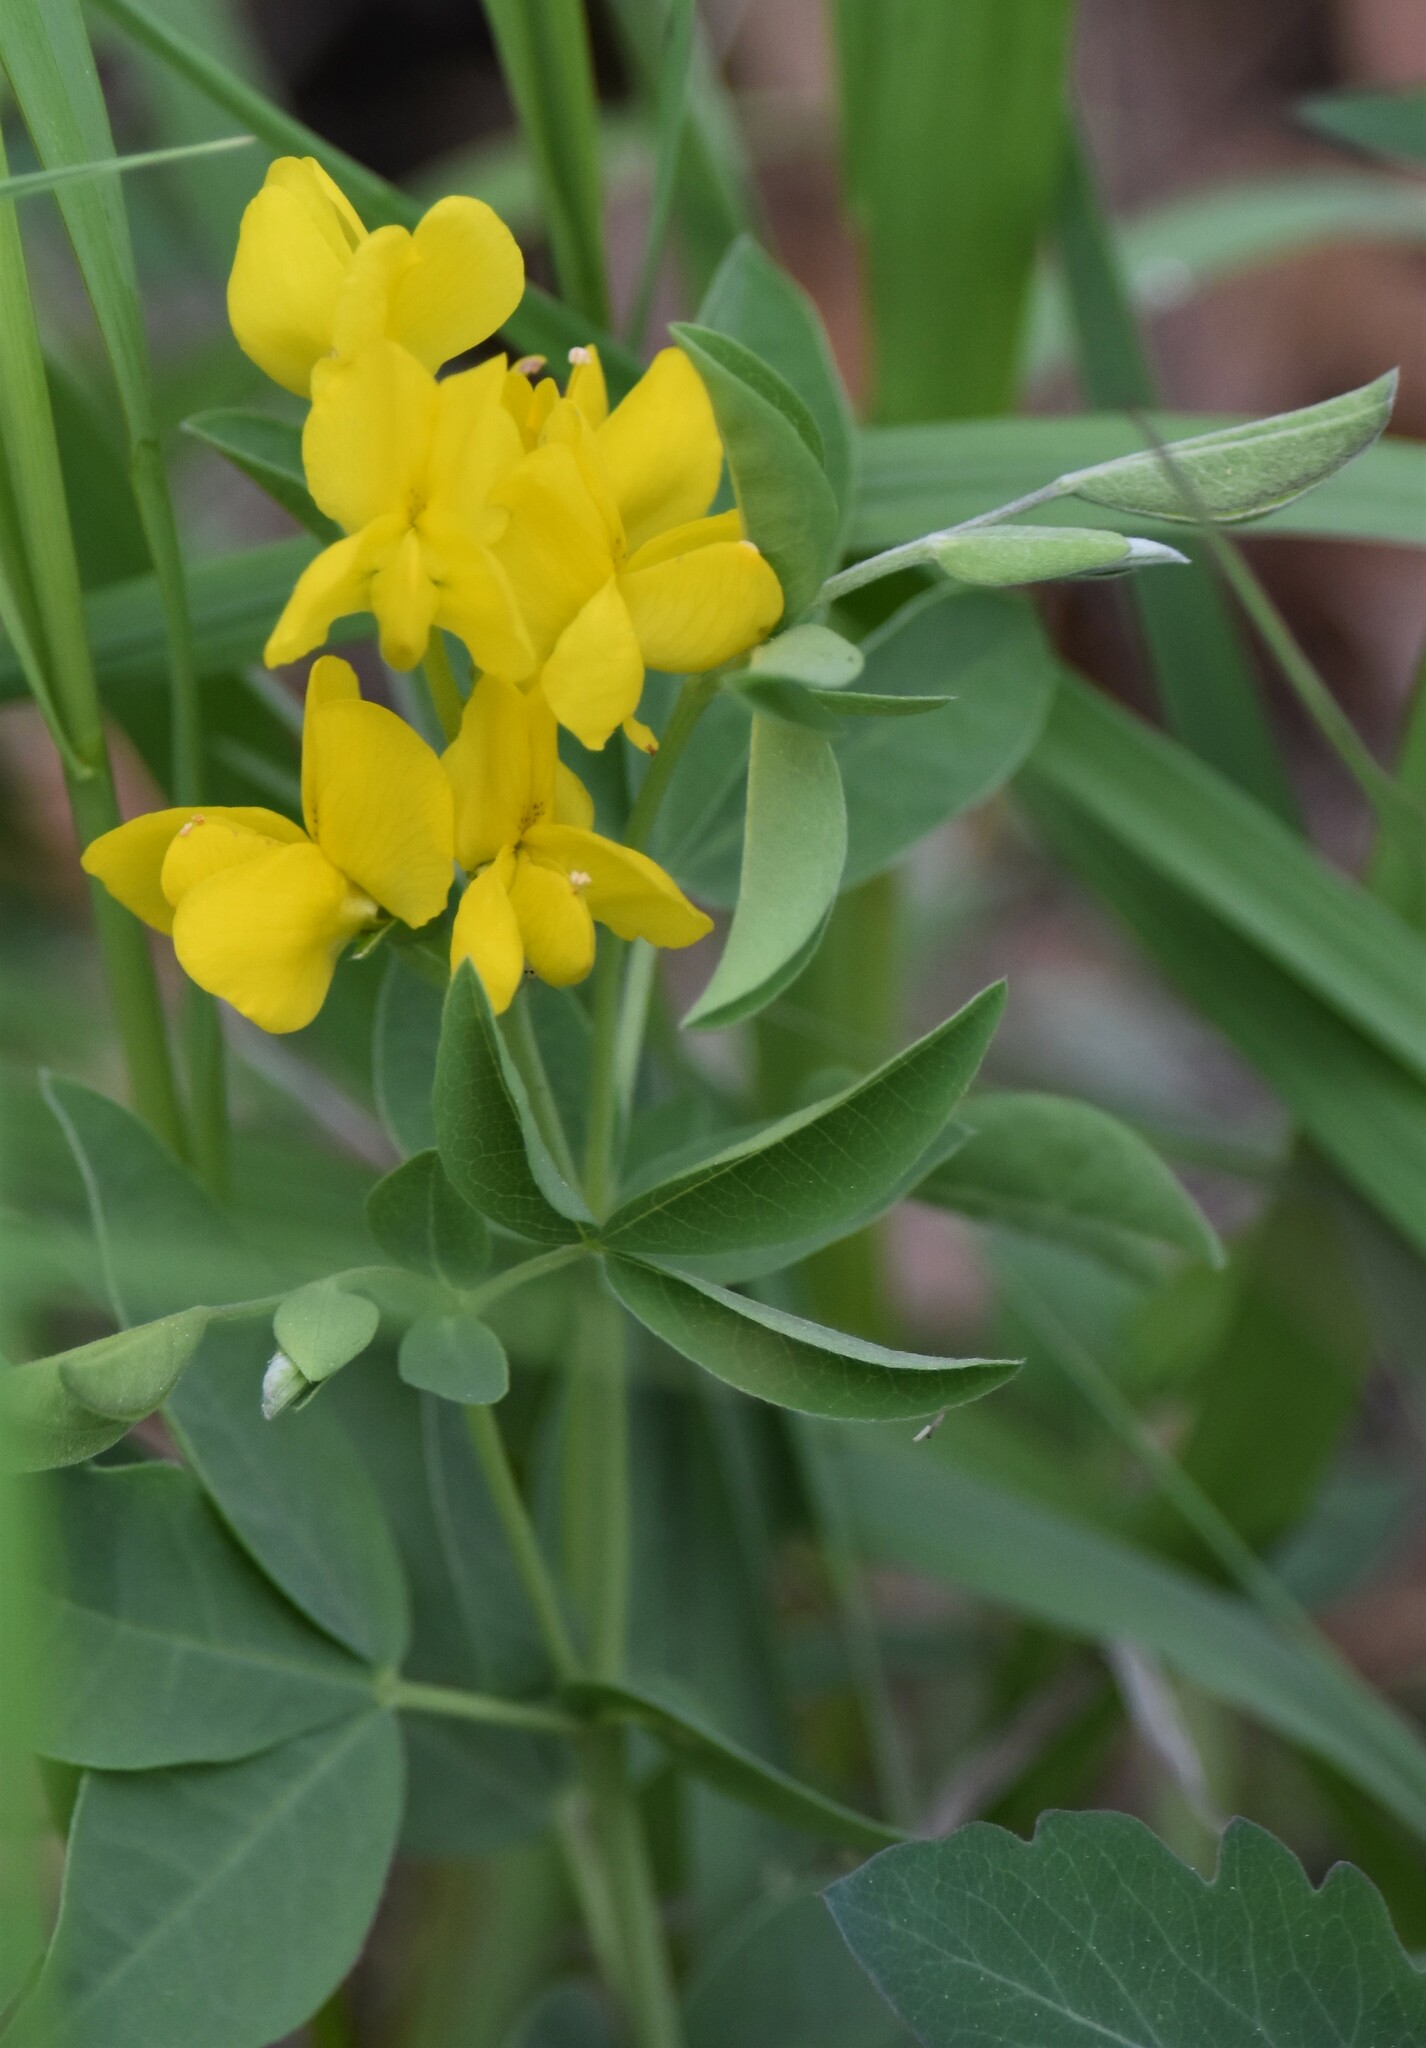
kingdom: Plantae
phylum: Tracheophyta
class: Magnoliopsida
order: Fabales
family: Fabaceae
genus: Thermopsis
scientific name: Thermopsis rhombifolia
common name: Circle-pod-pea
